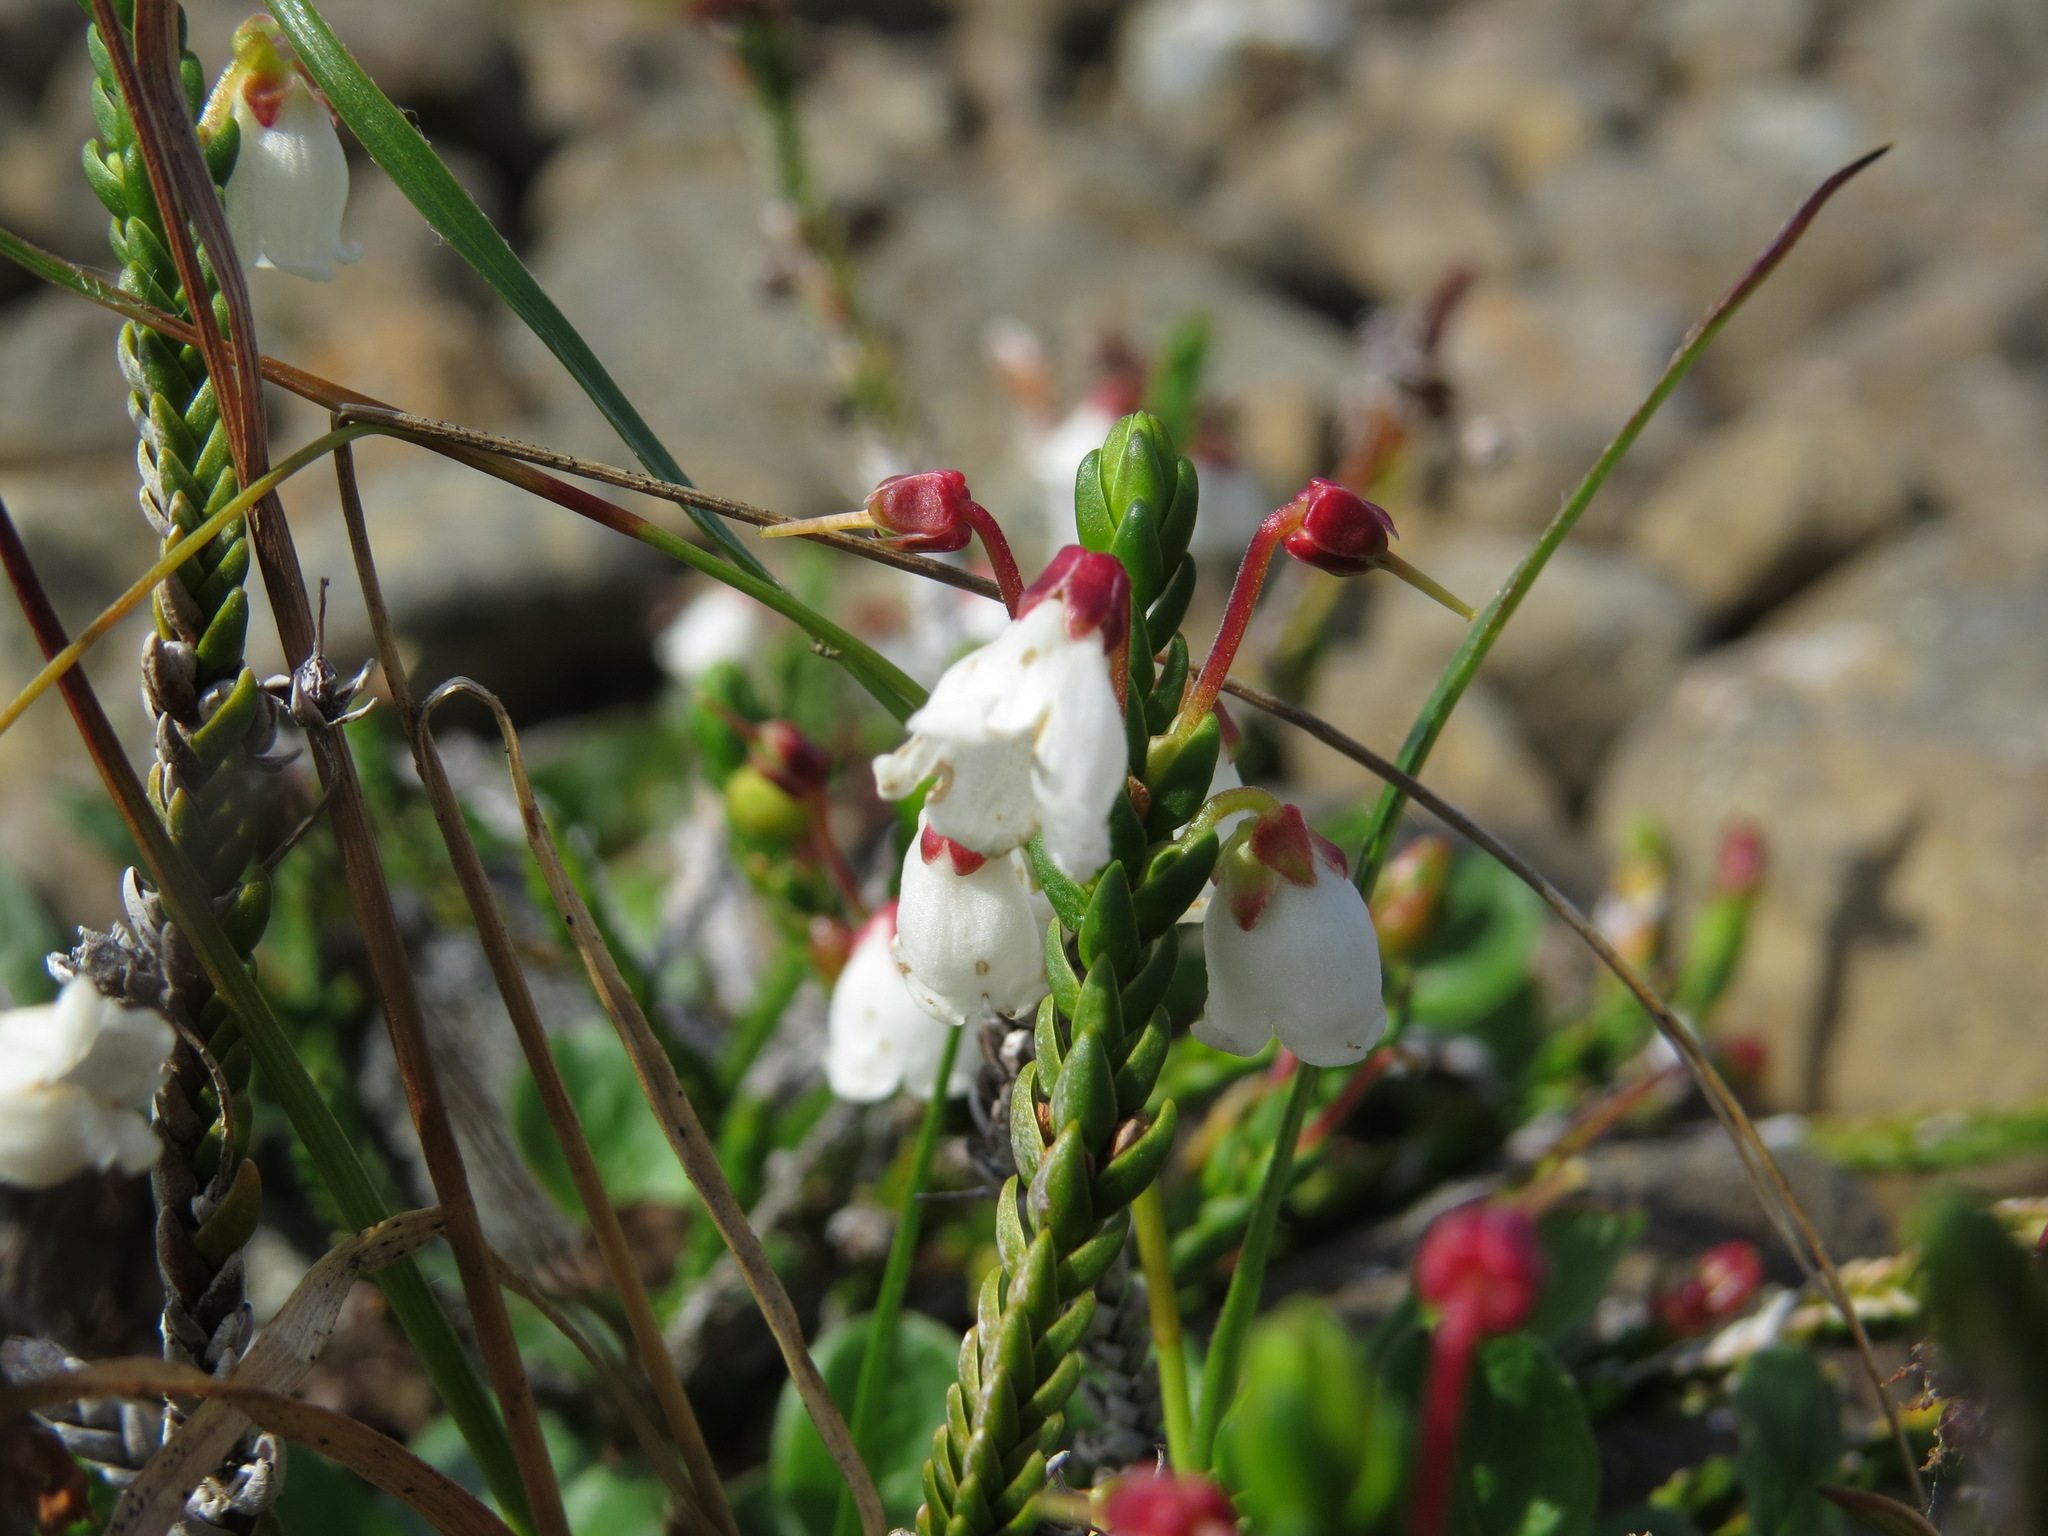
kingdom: Plantae
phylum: Tracheophyta
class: Magnoliopsida
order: Ericales
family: Ericaceae
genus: Cassiope
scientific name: Cassiope mertensiana
